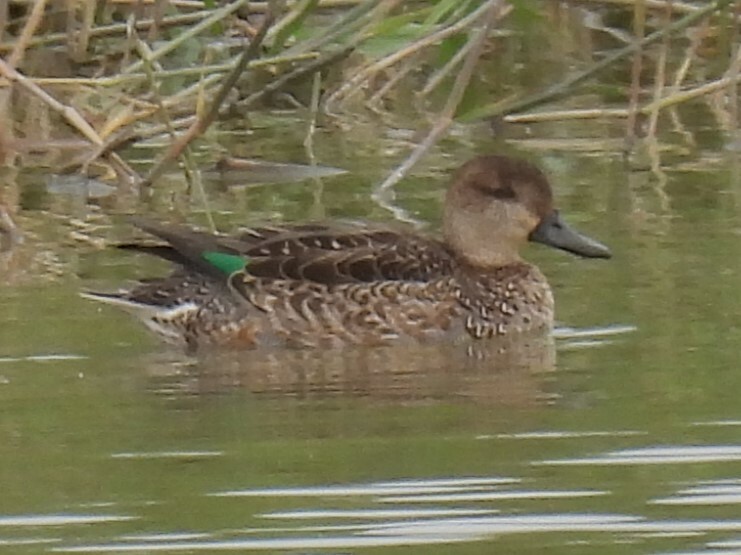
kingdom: Animalia
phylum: Chordata
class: Aves
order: Anseriformes
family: Anatidae
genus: Anas
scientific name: Anas crecca
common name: Eurasian teal
